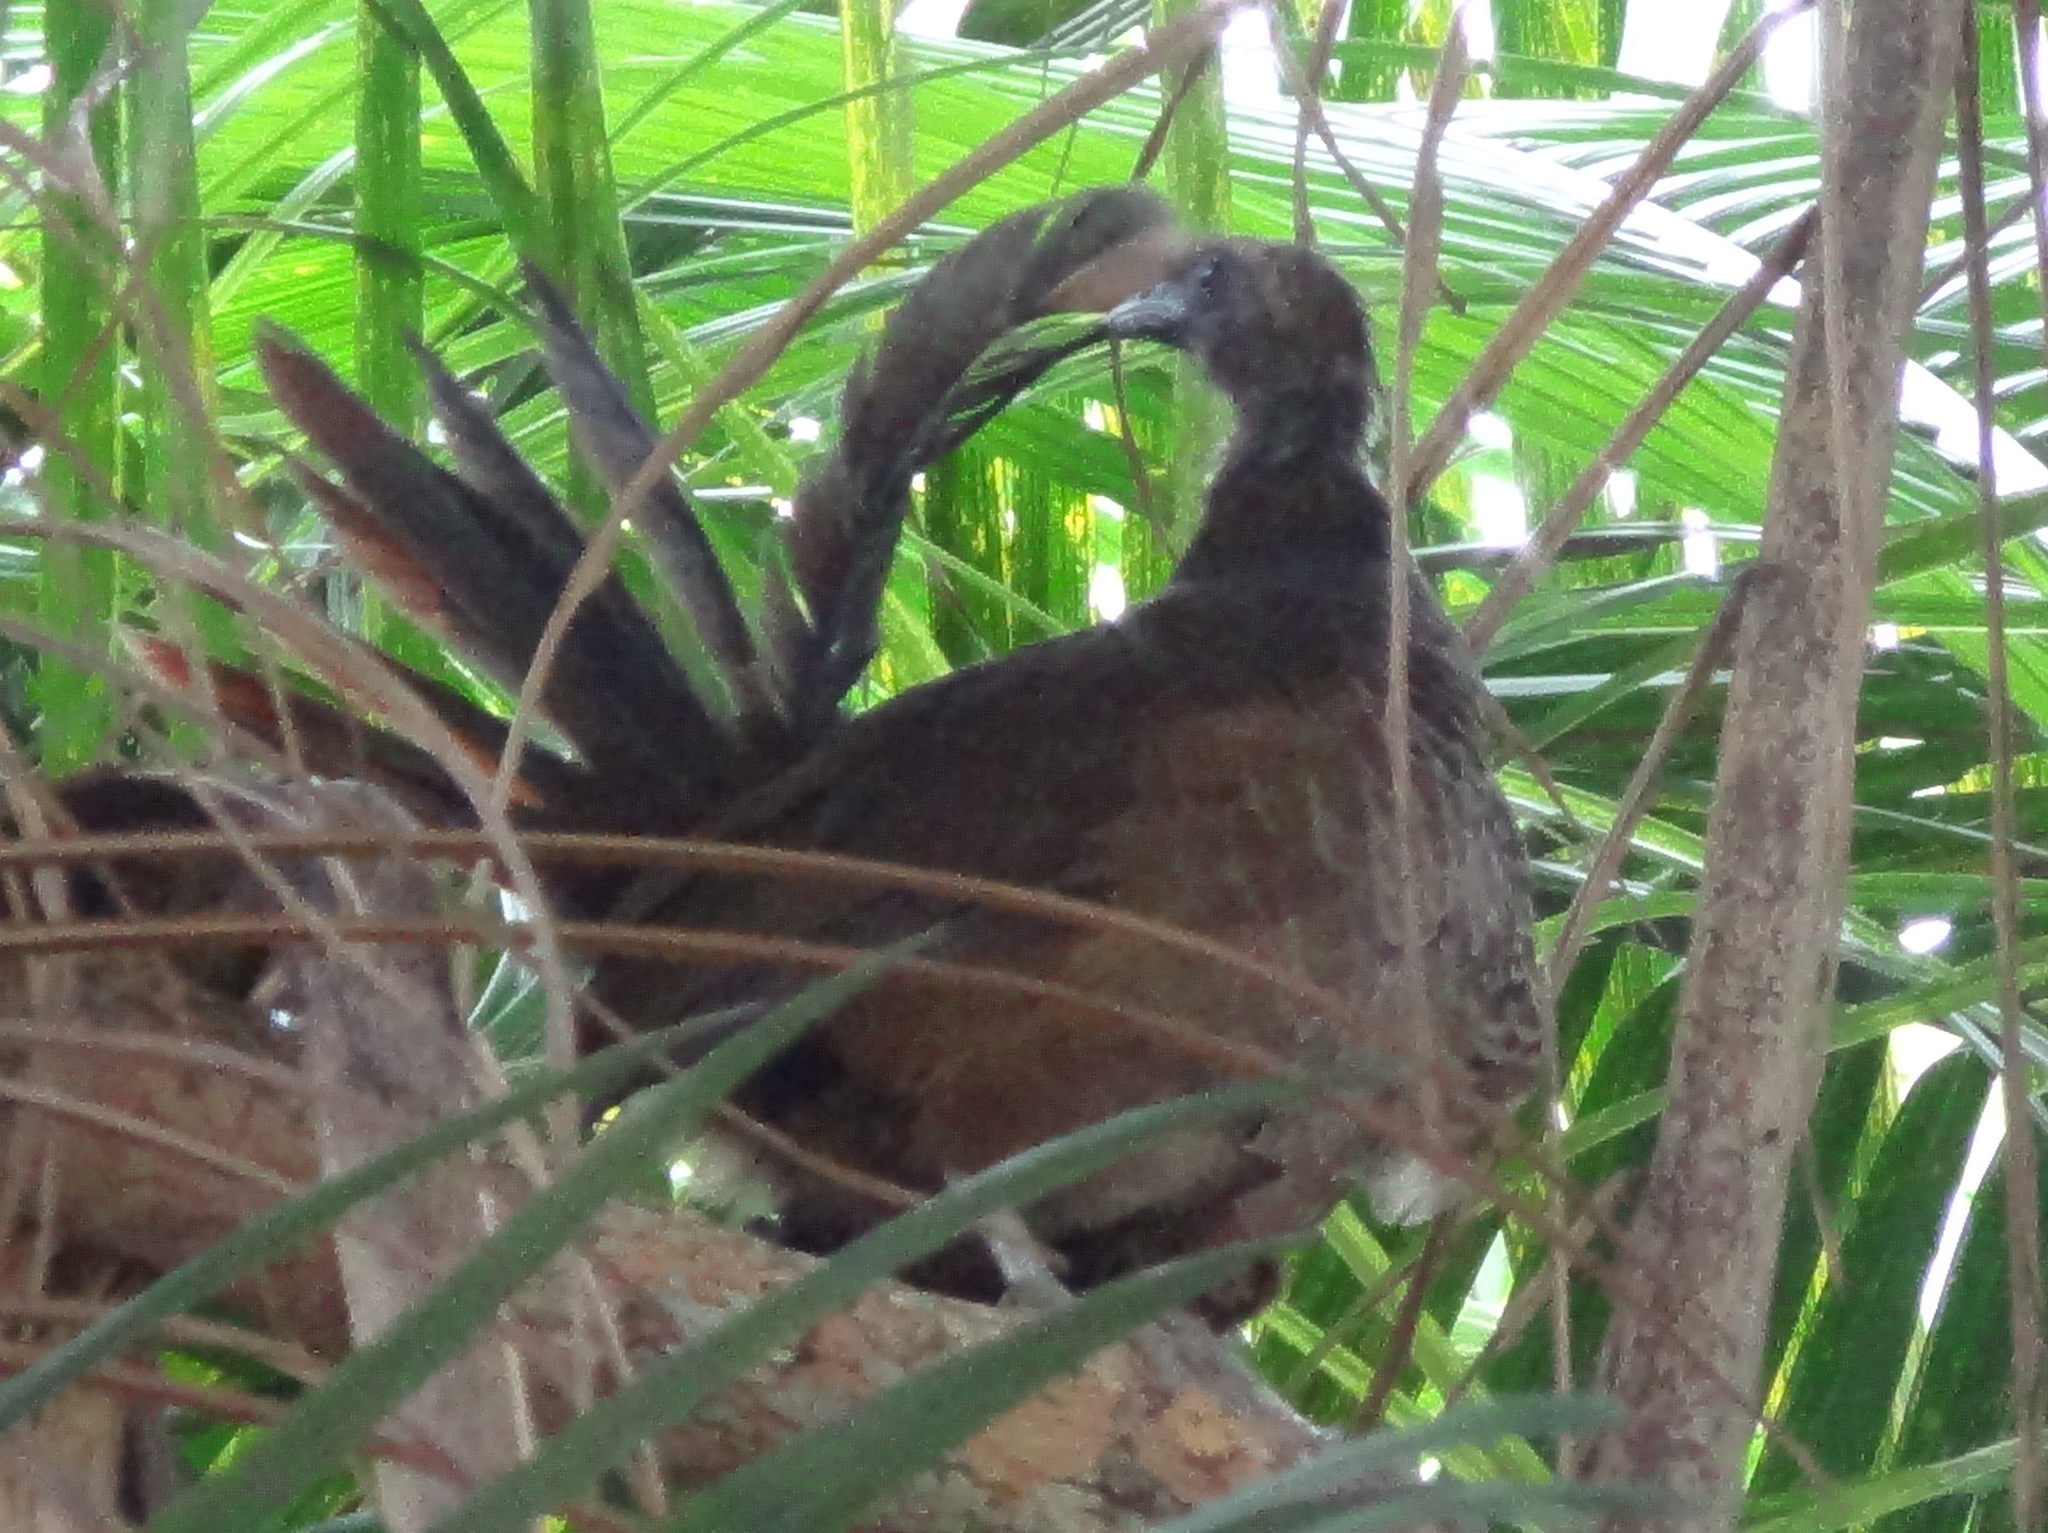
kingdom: Animalia
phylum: Chordata
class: Aves
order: Galliformes
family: Cracidae
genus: Ortalis
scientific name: Ortalis squamata
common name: Scaled chachalaca
